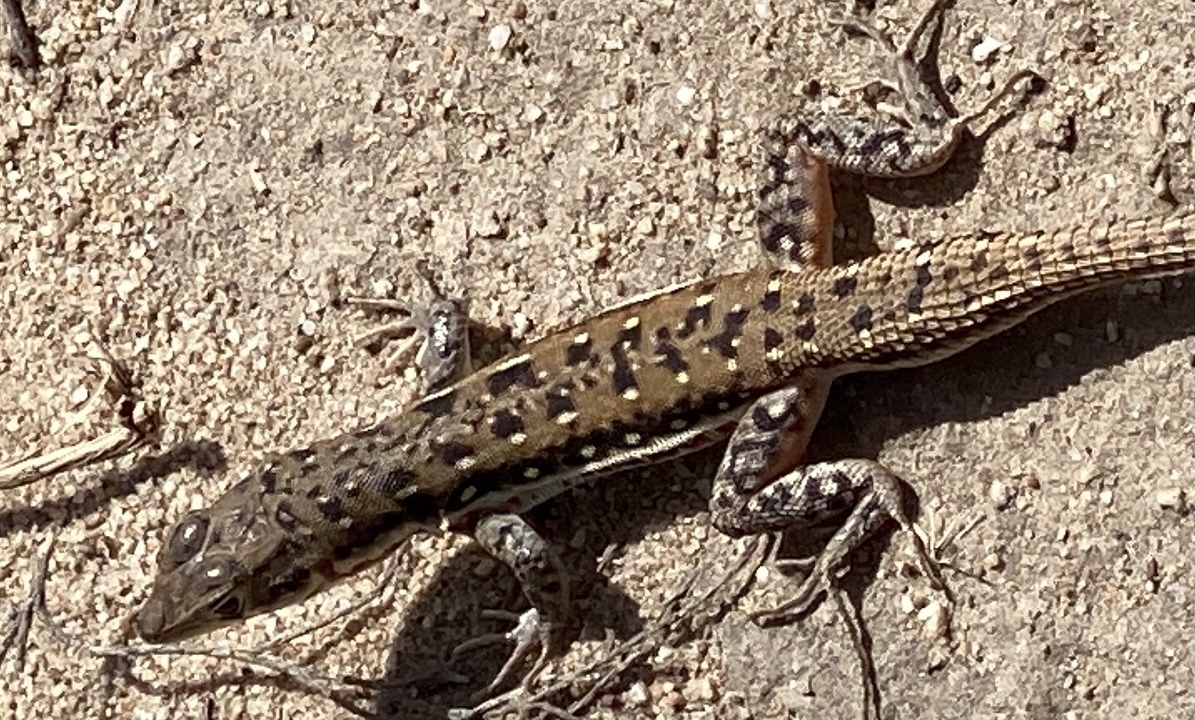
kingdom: Animalia
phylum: Chordata
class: Squamata
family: Lacertidae
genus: Pedioplanis
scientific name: Pedioplanis lineoocellata
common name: Spotted sand lizard
